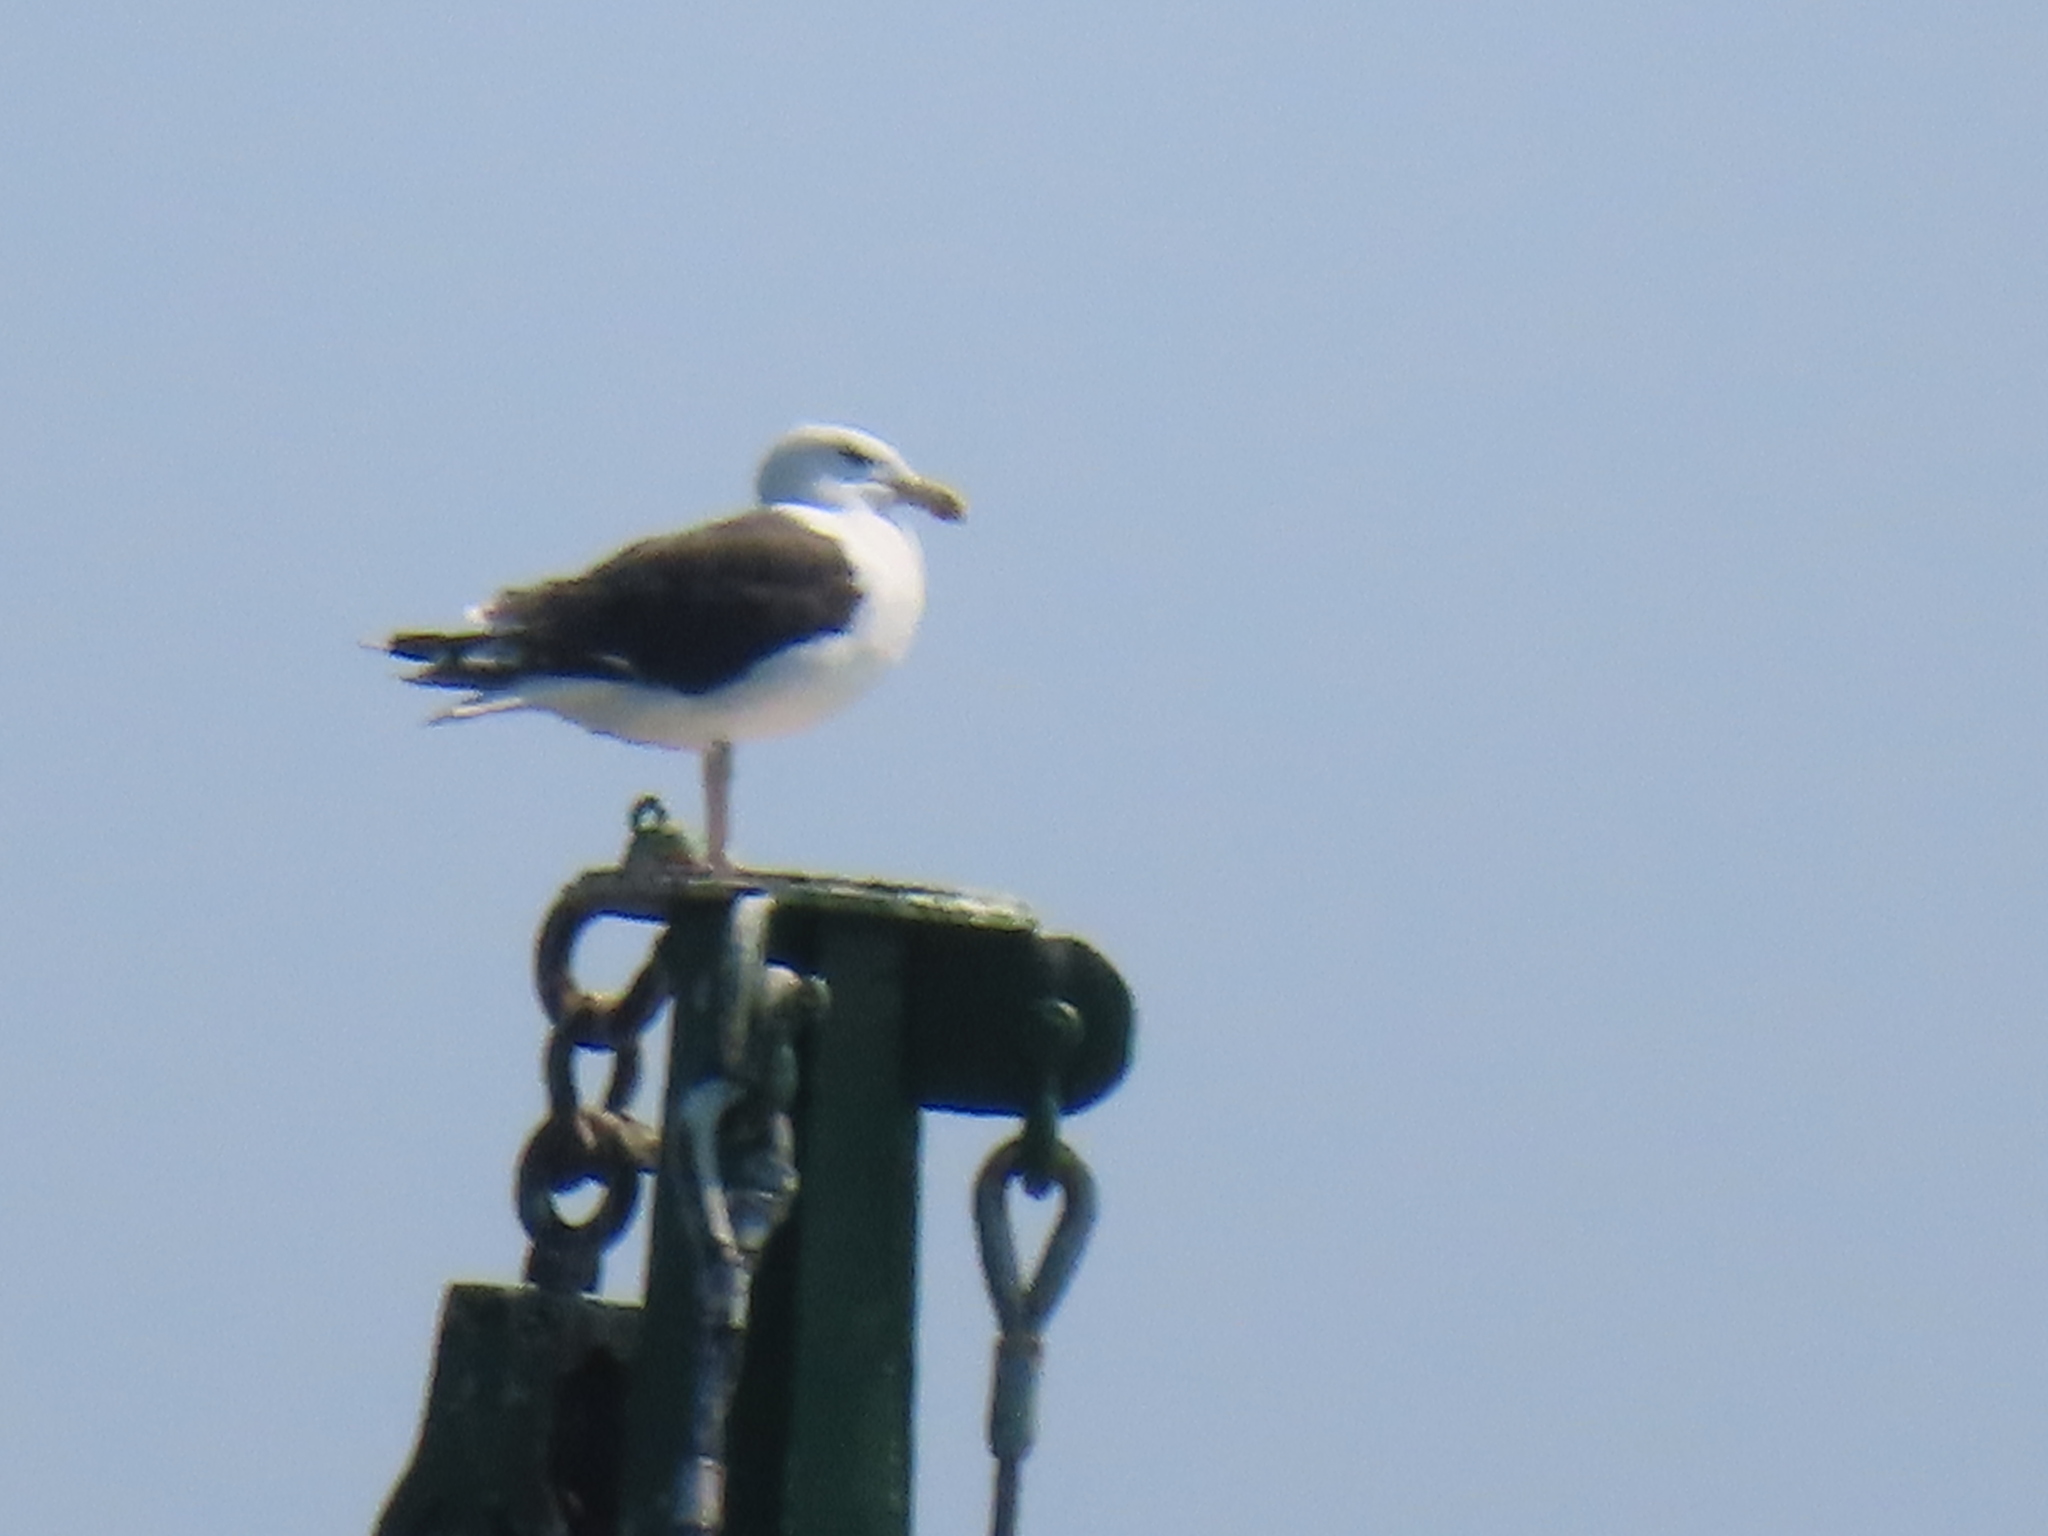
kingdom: Animalia
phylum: Chordata
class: Aves
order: Charadriiformes
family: Laridae
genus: Larus
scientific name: Larus marinus
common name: Great black-backed gull
